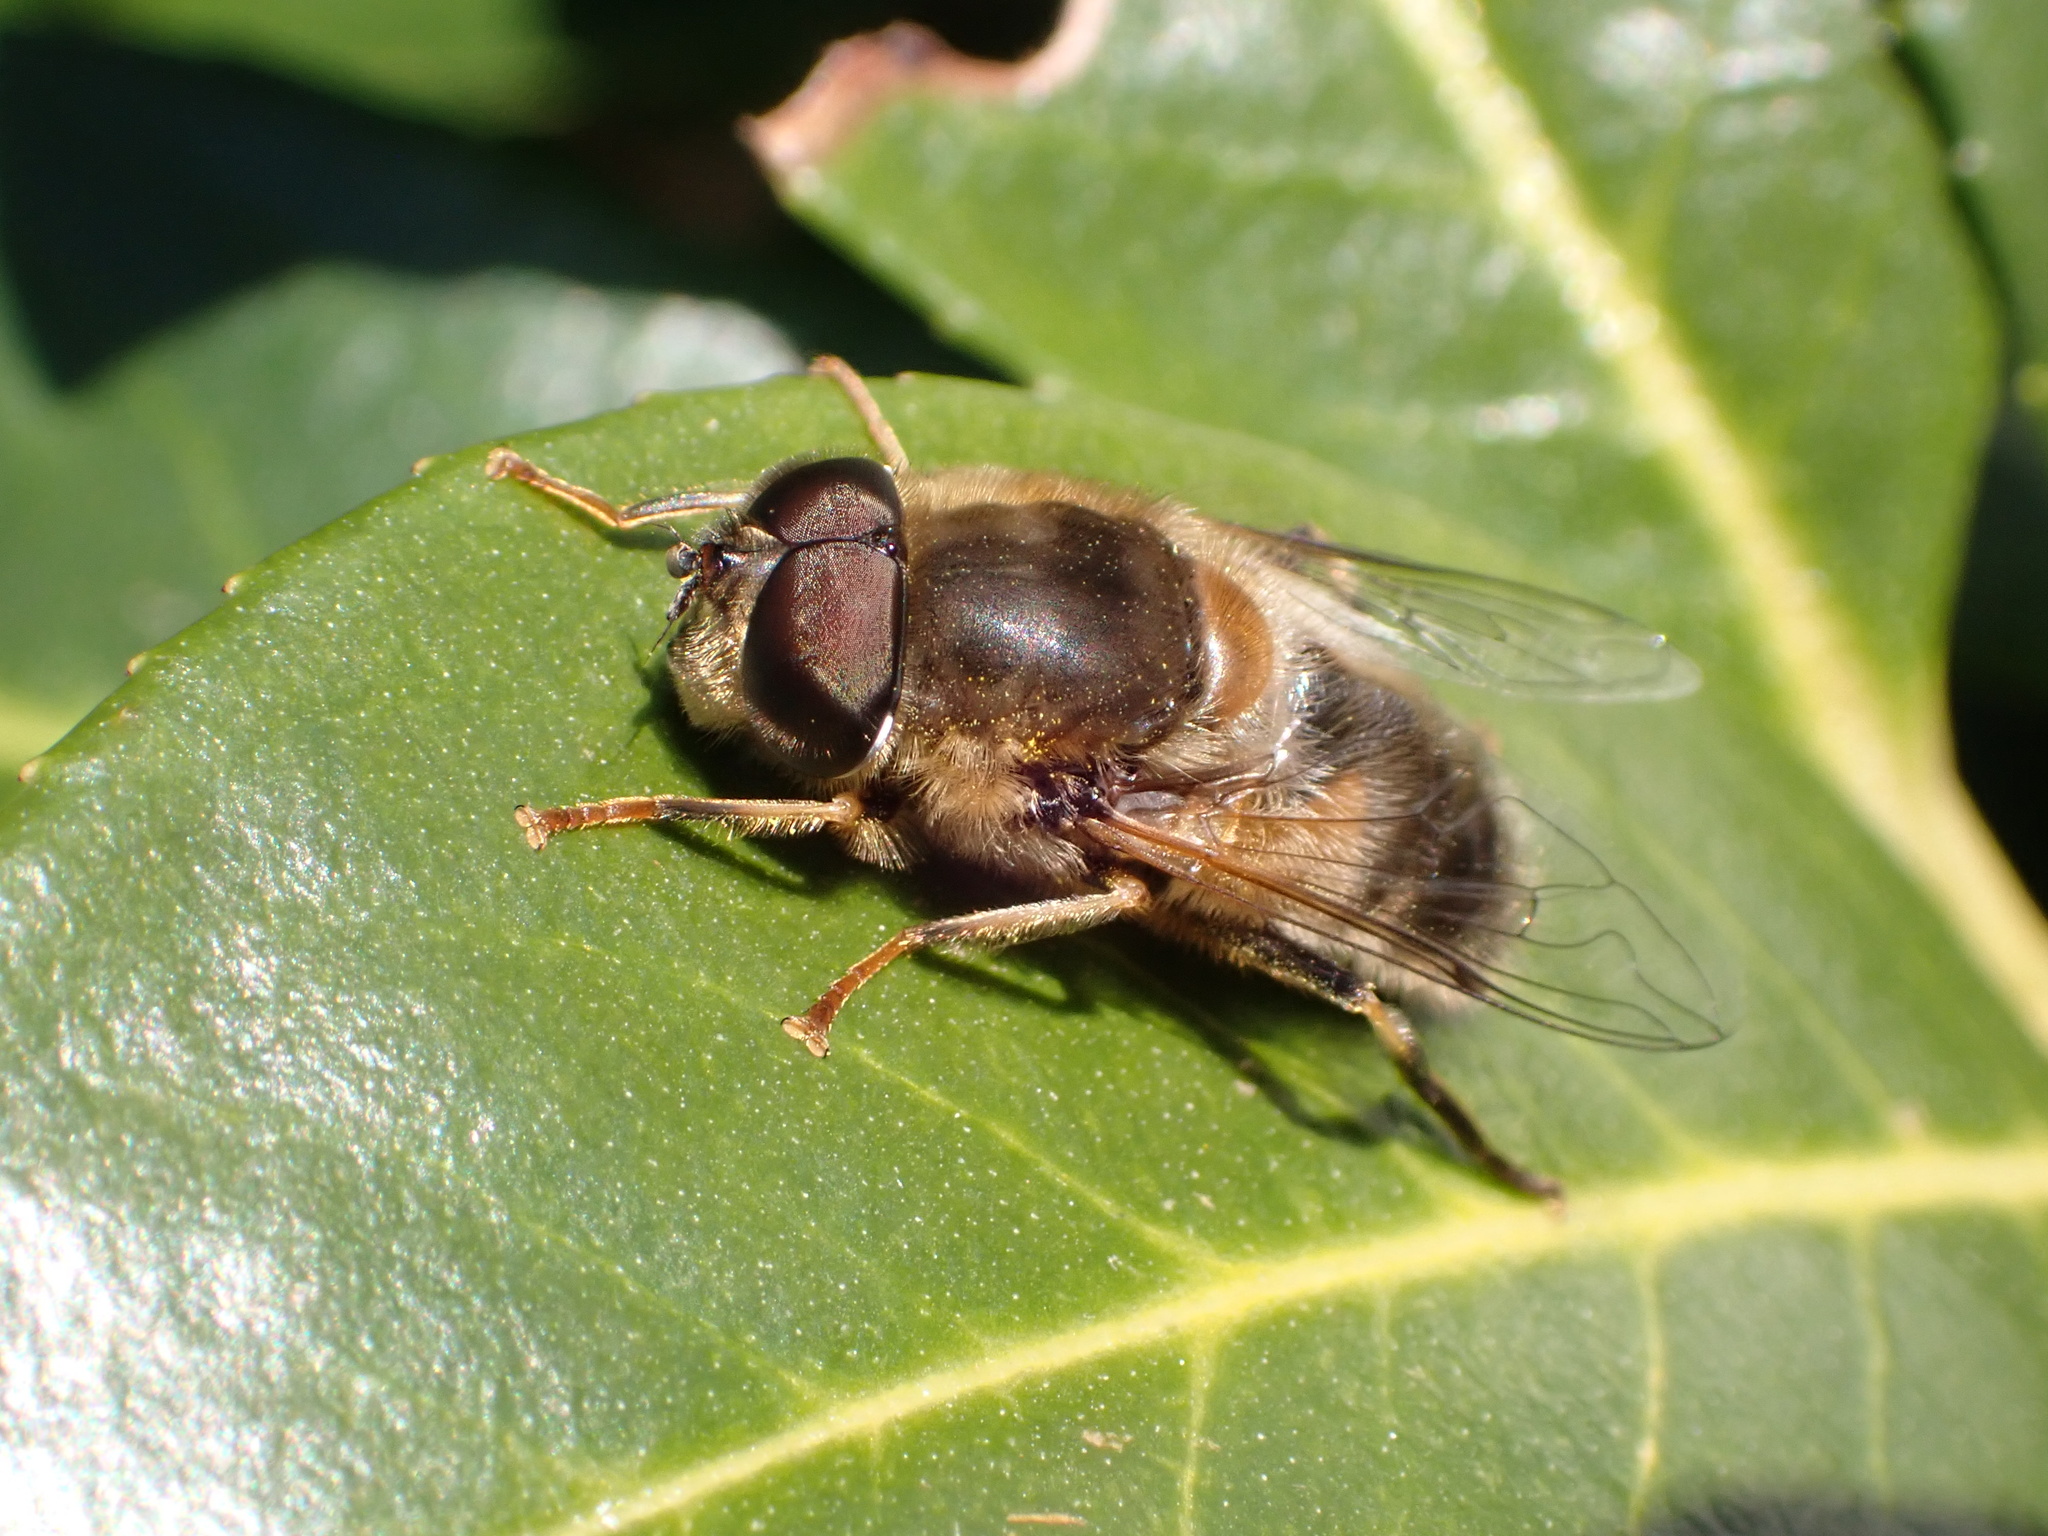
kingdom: Animalia
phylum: Arthropoda
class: Insecta
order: Diptera
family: Syrphidae
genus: Eristalis
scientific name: Eristalis pertinax
